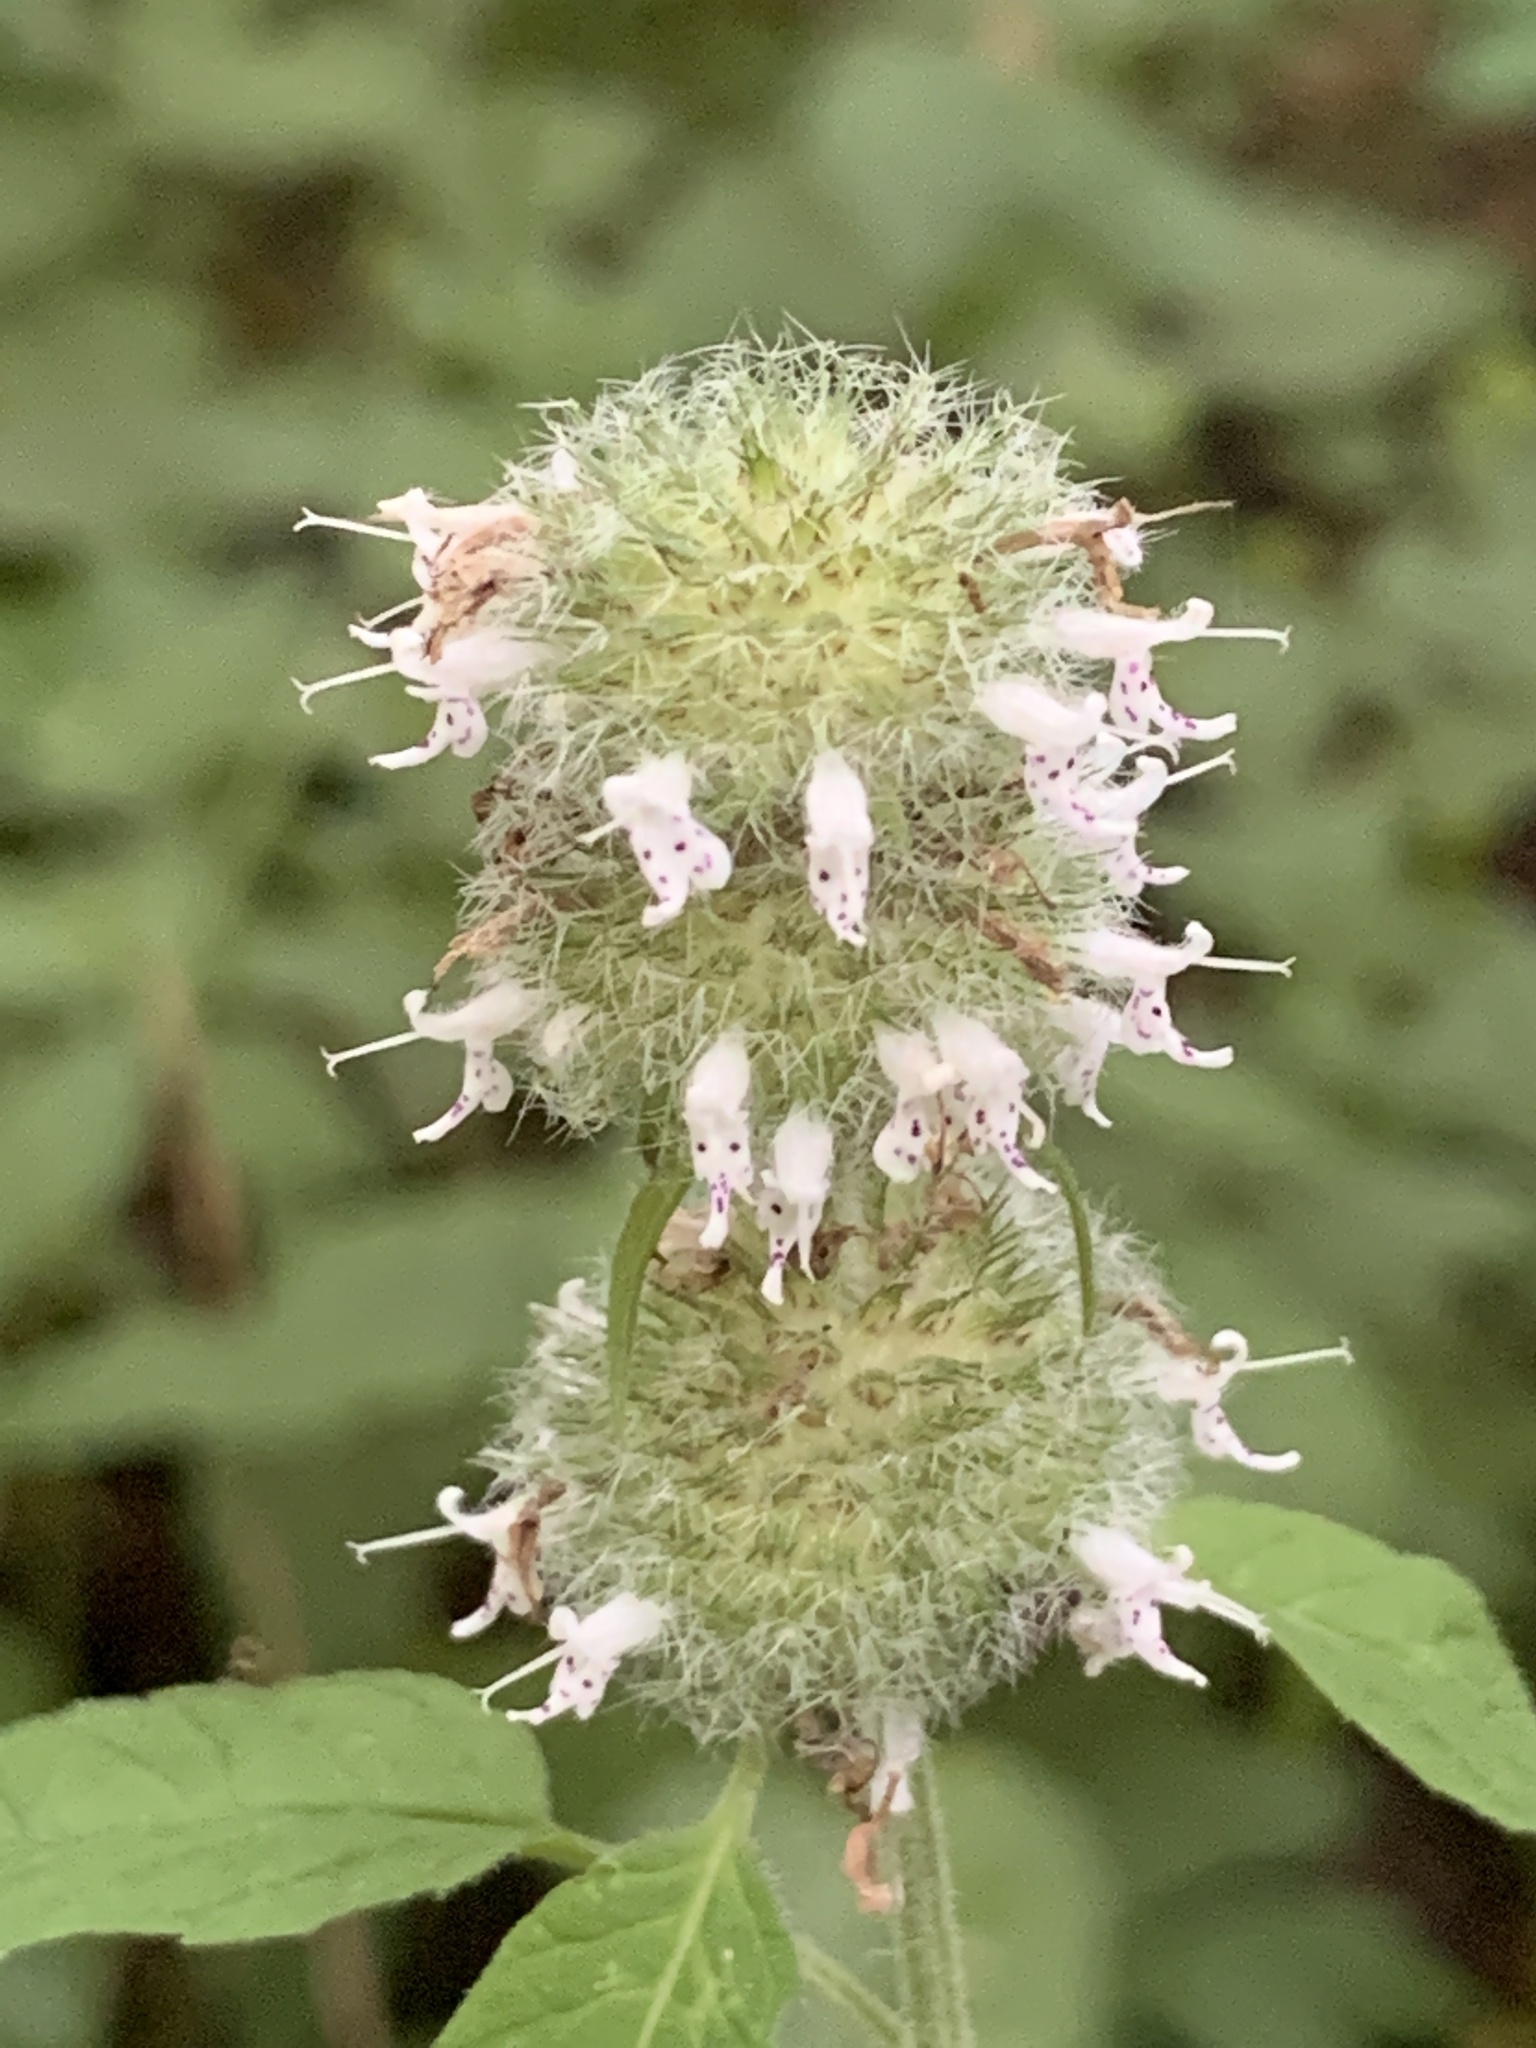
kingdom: Plantae
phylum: Tracheophyta
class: Magnoliopsida
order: Lamiales
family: Lamiaceae
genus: Blephilia
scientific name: Blephilia hirsuta
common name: Hairy blephilia
